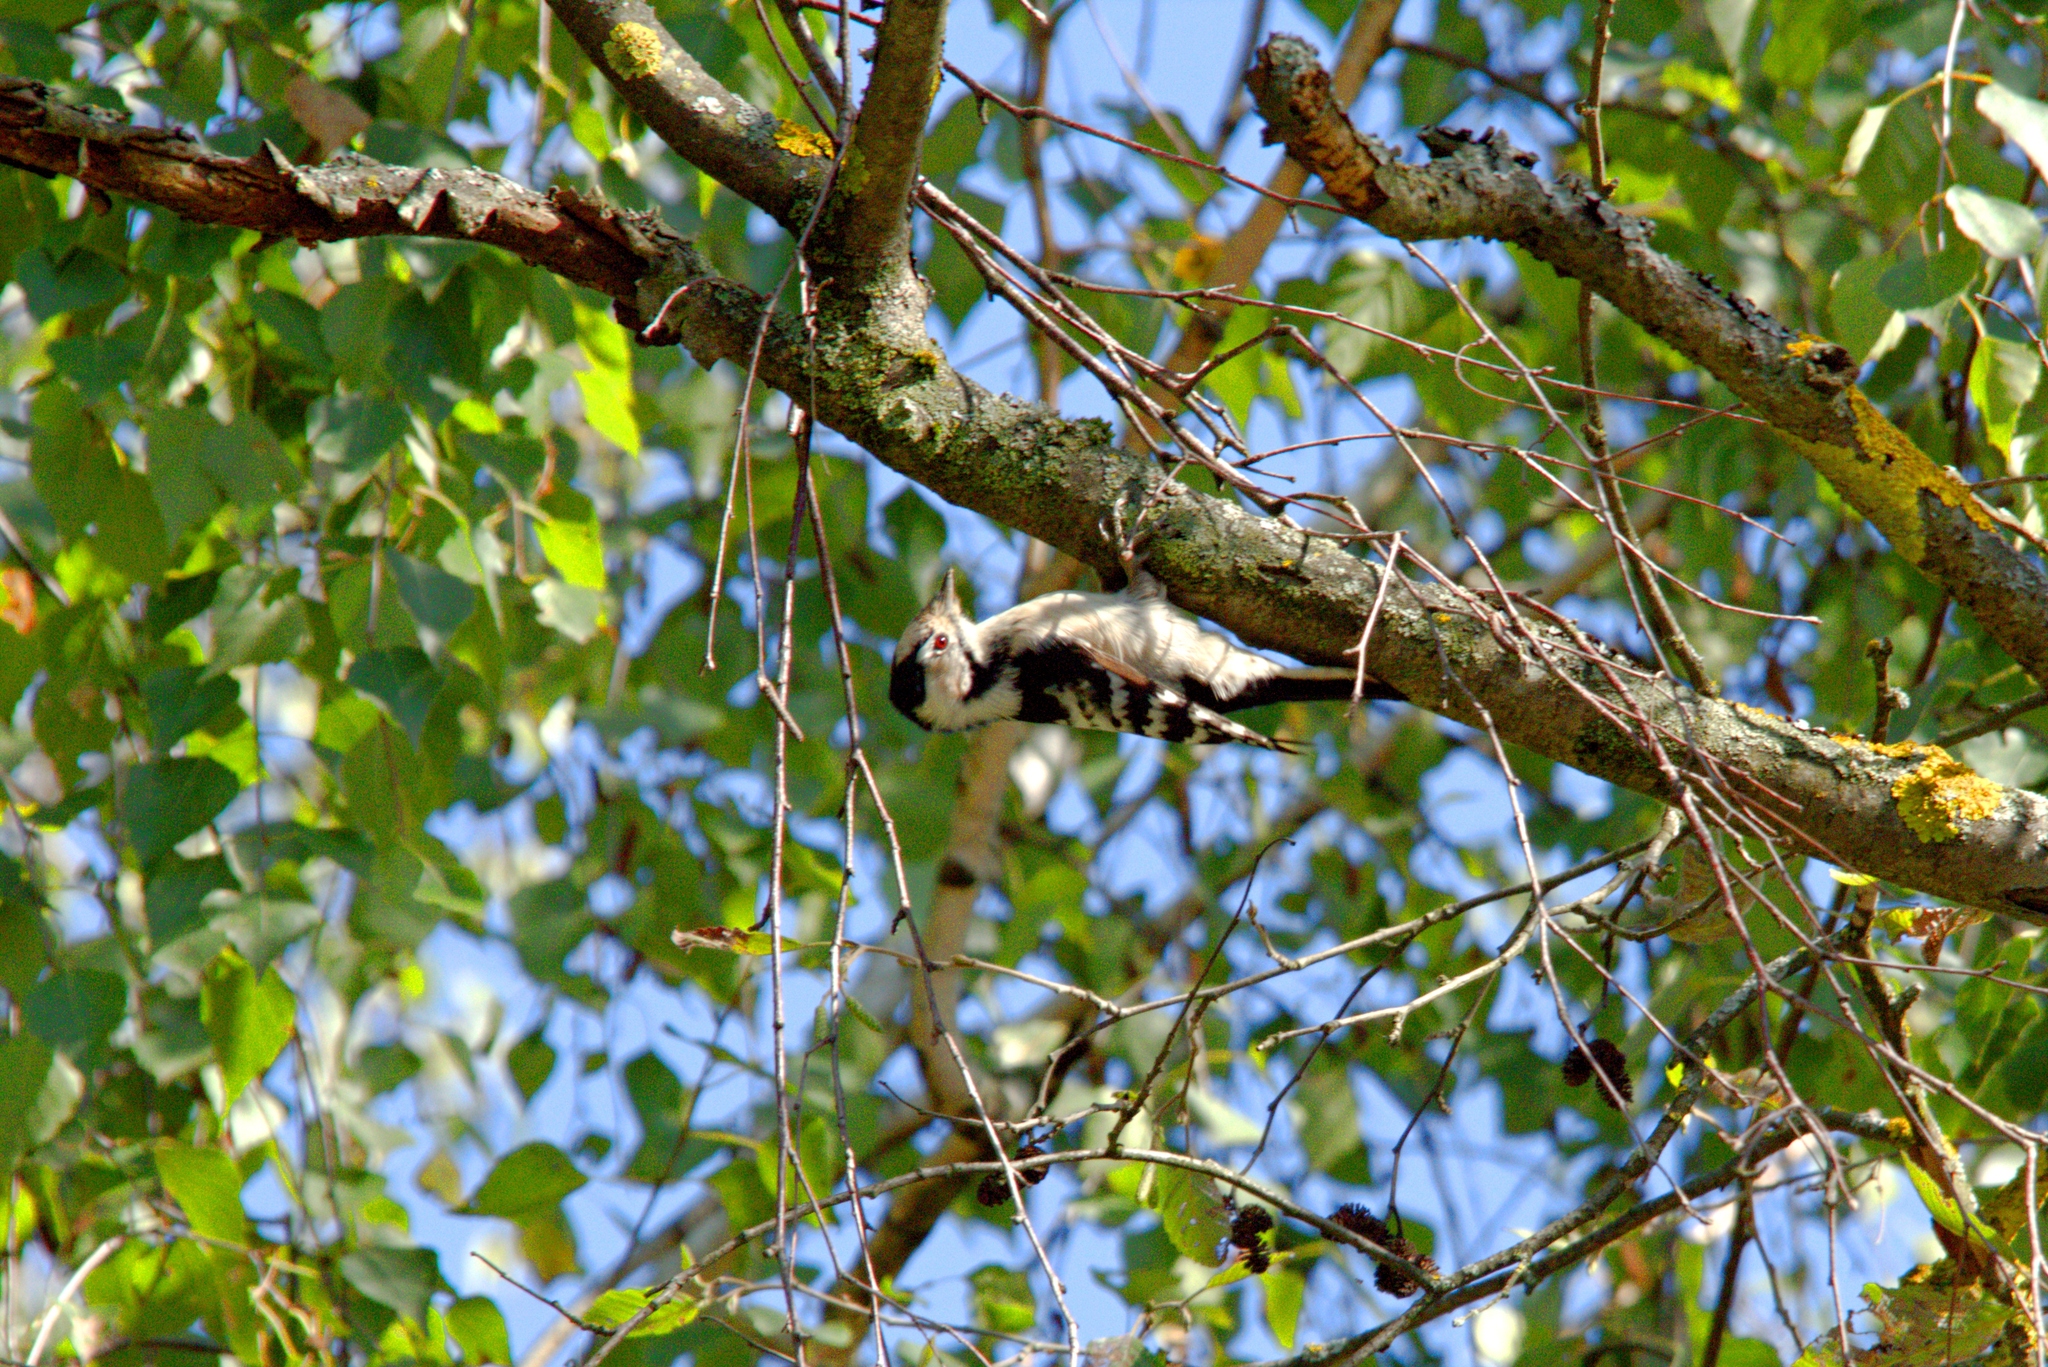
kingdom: Animalia
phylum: Chordata
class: Aves
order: Piciformes
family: Picidae
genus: Dryobates
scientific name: Dryobates minor
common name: Lesser spotted woodpecker
